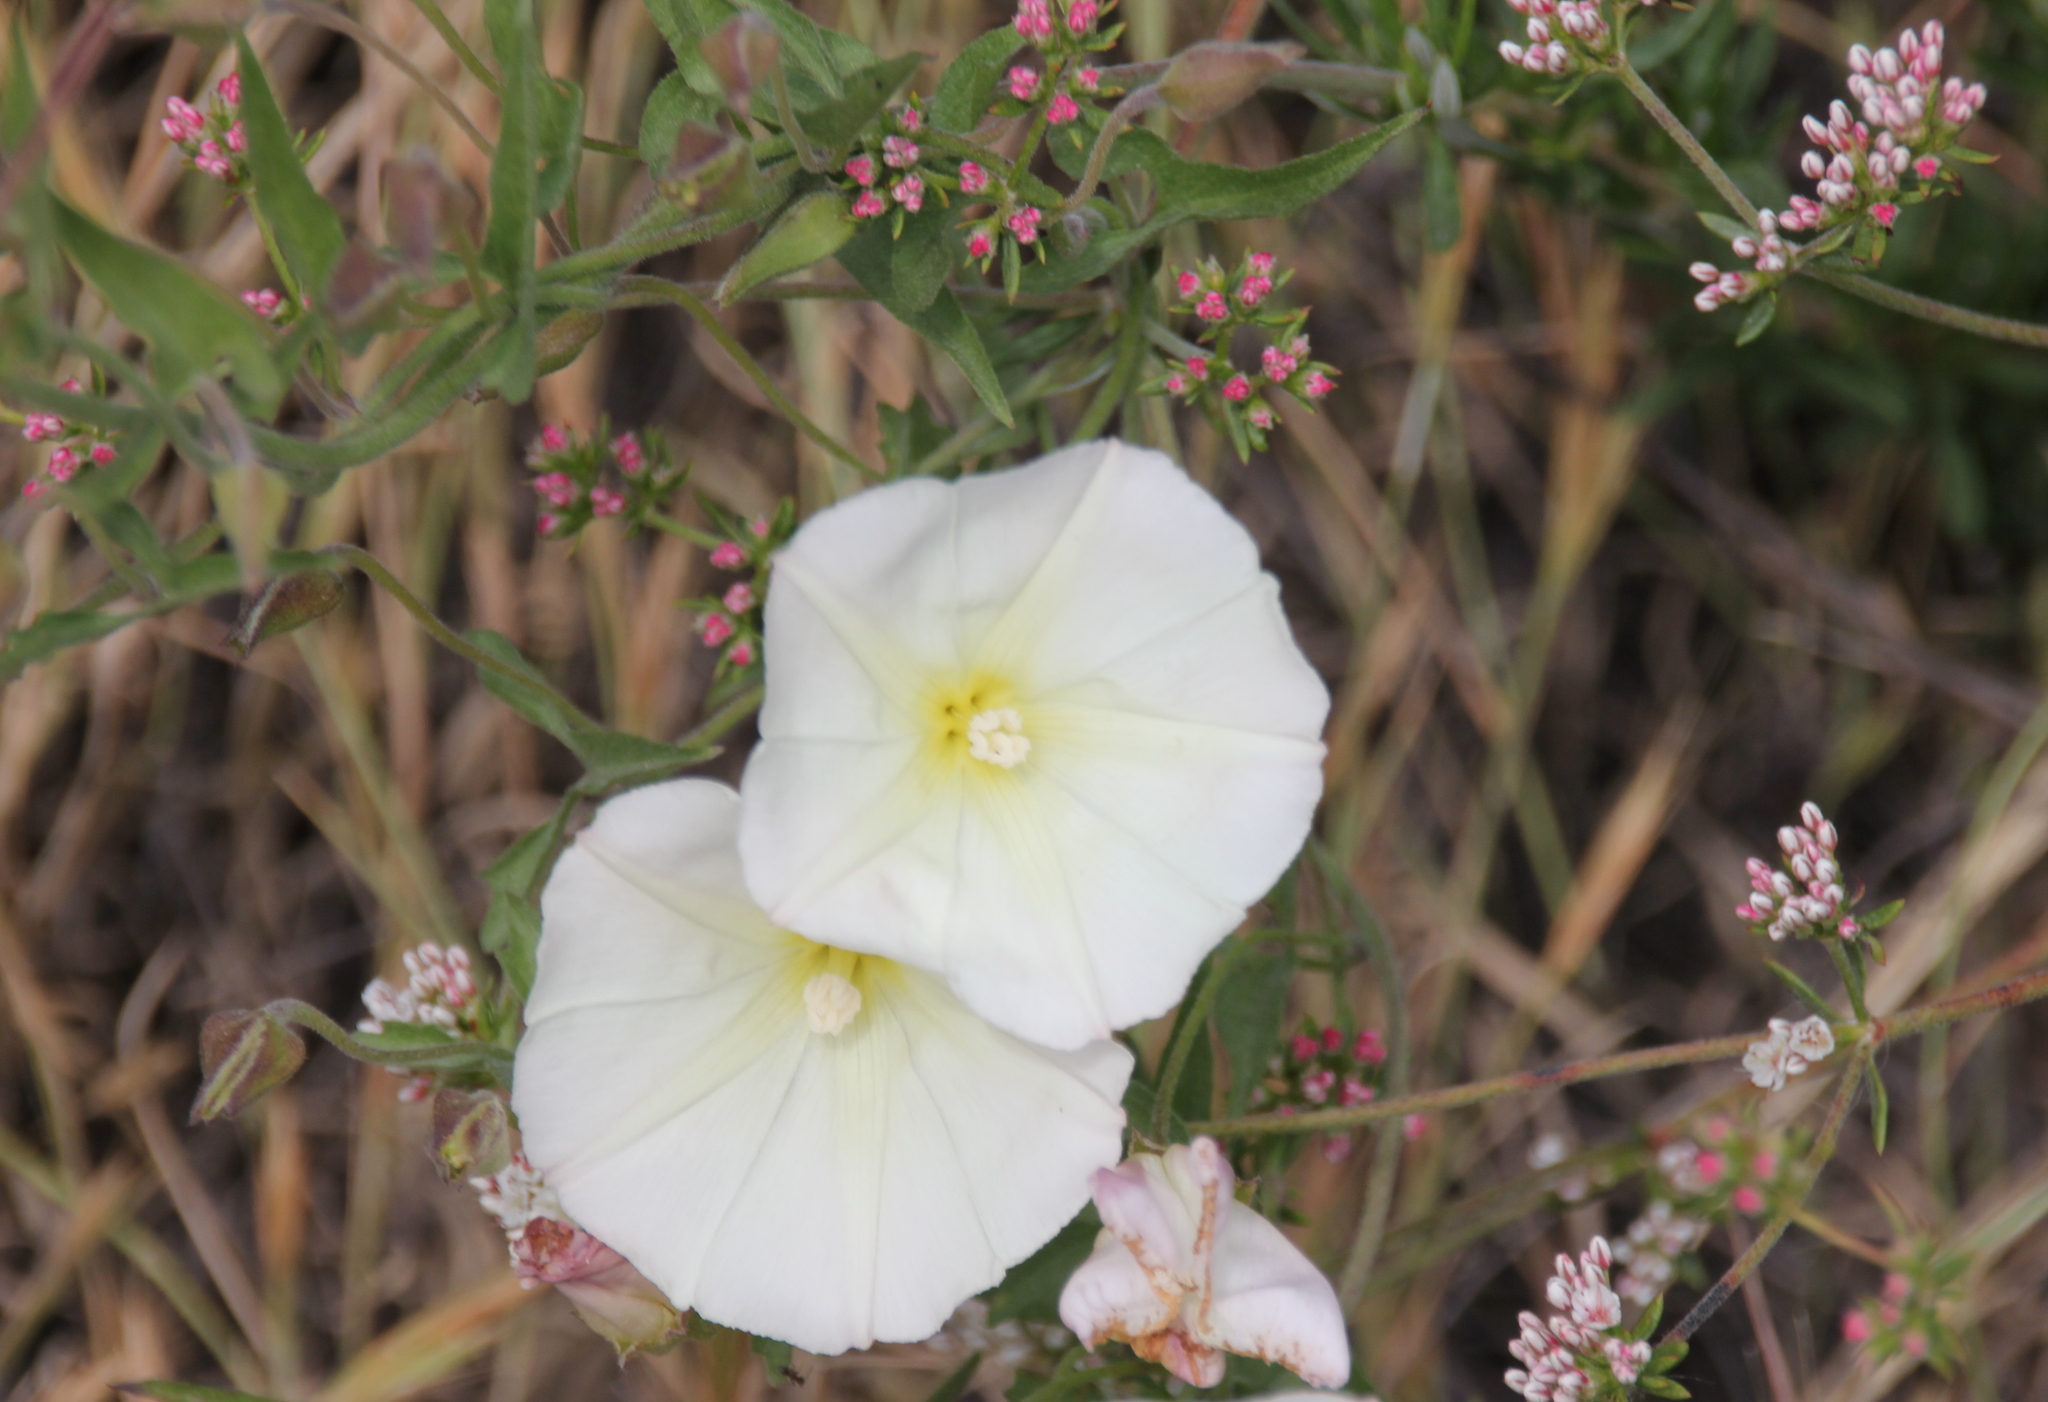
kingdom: Plantae
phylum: Tracheophyta
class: Magnoliopsida
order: Solanales
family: Convolvulaceae
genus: Calystegia
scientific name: Calystegia macrostegia
